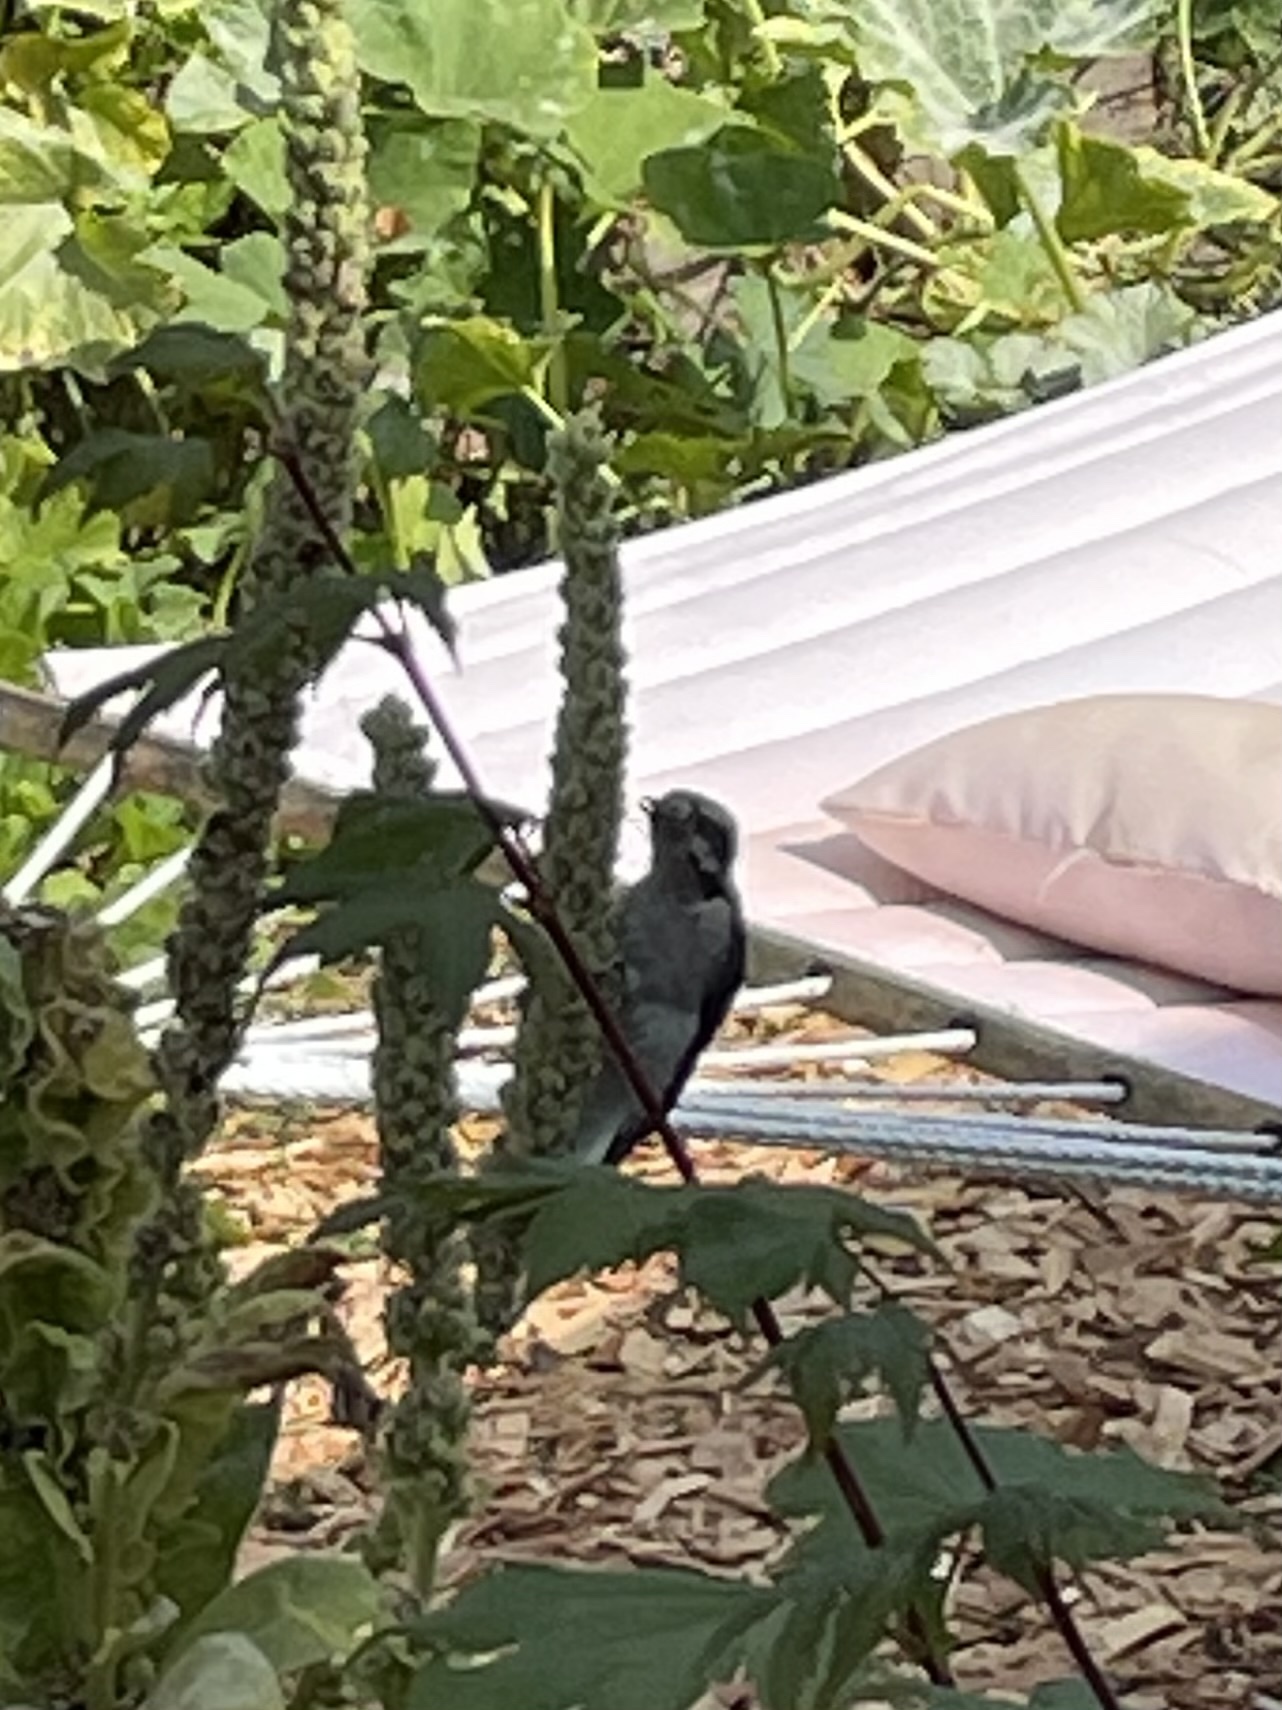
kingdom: Animalia
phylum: Chordata
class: Aves
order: Piciformes
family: Picidae
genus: Dryobates
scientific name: Dryobates pubescens
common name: Downy woodpecker
